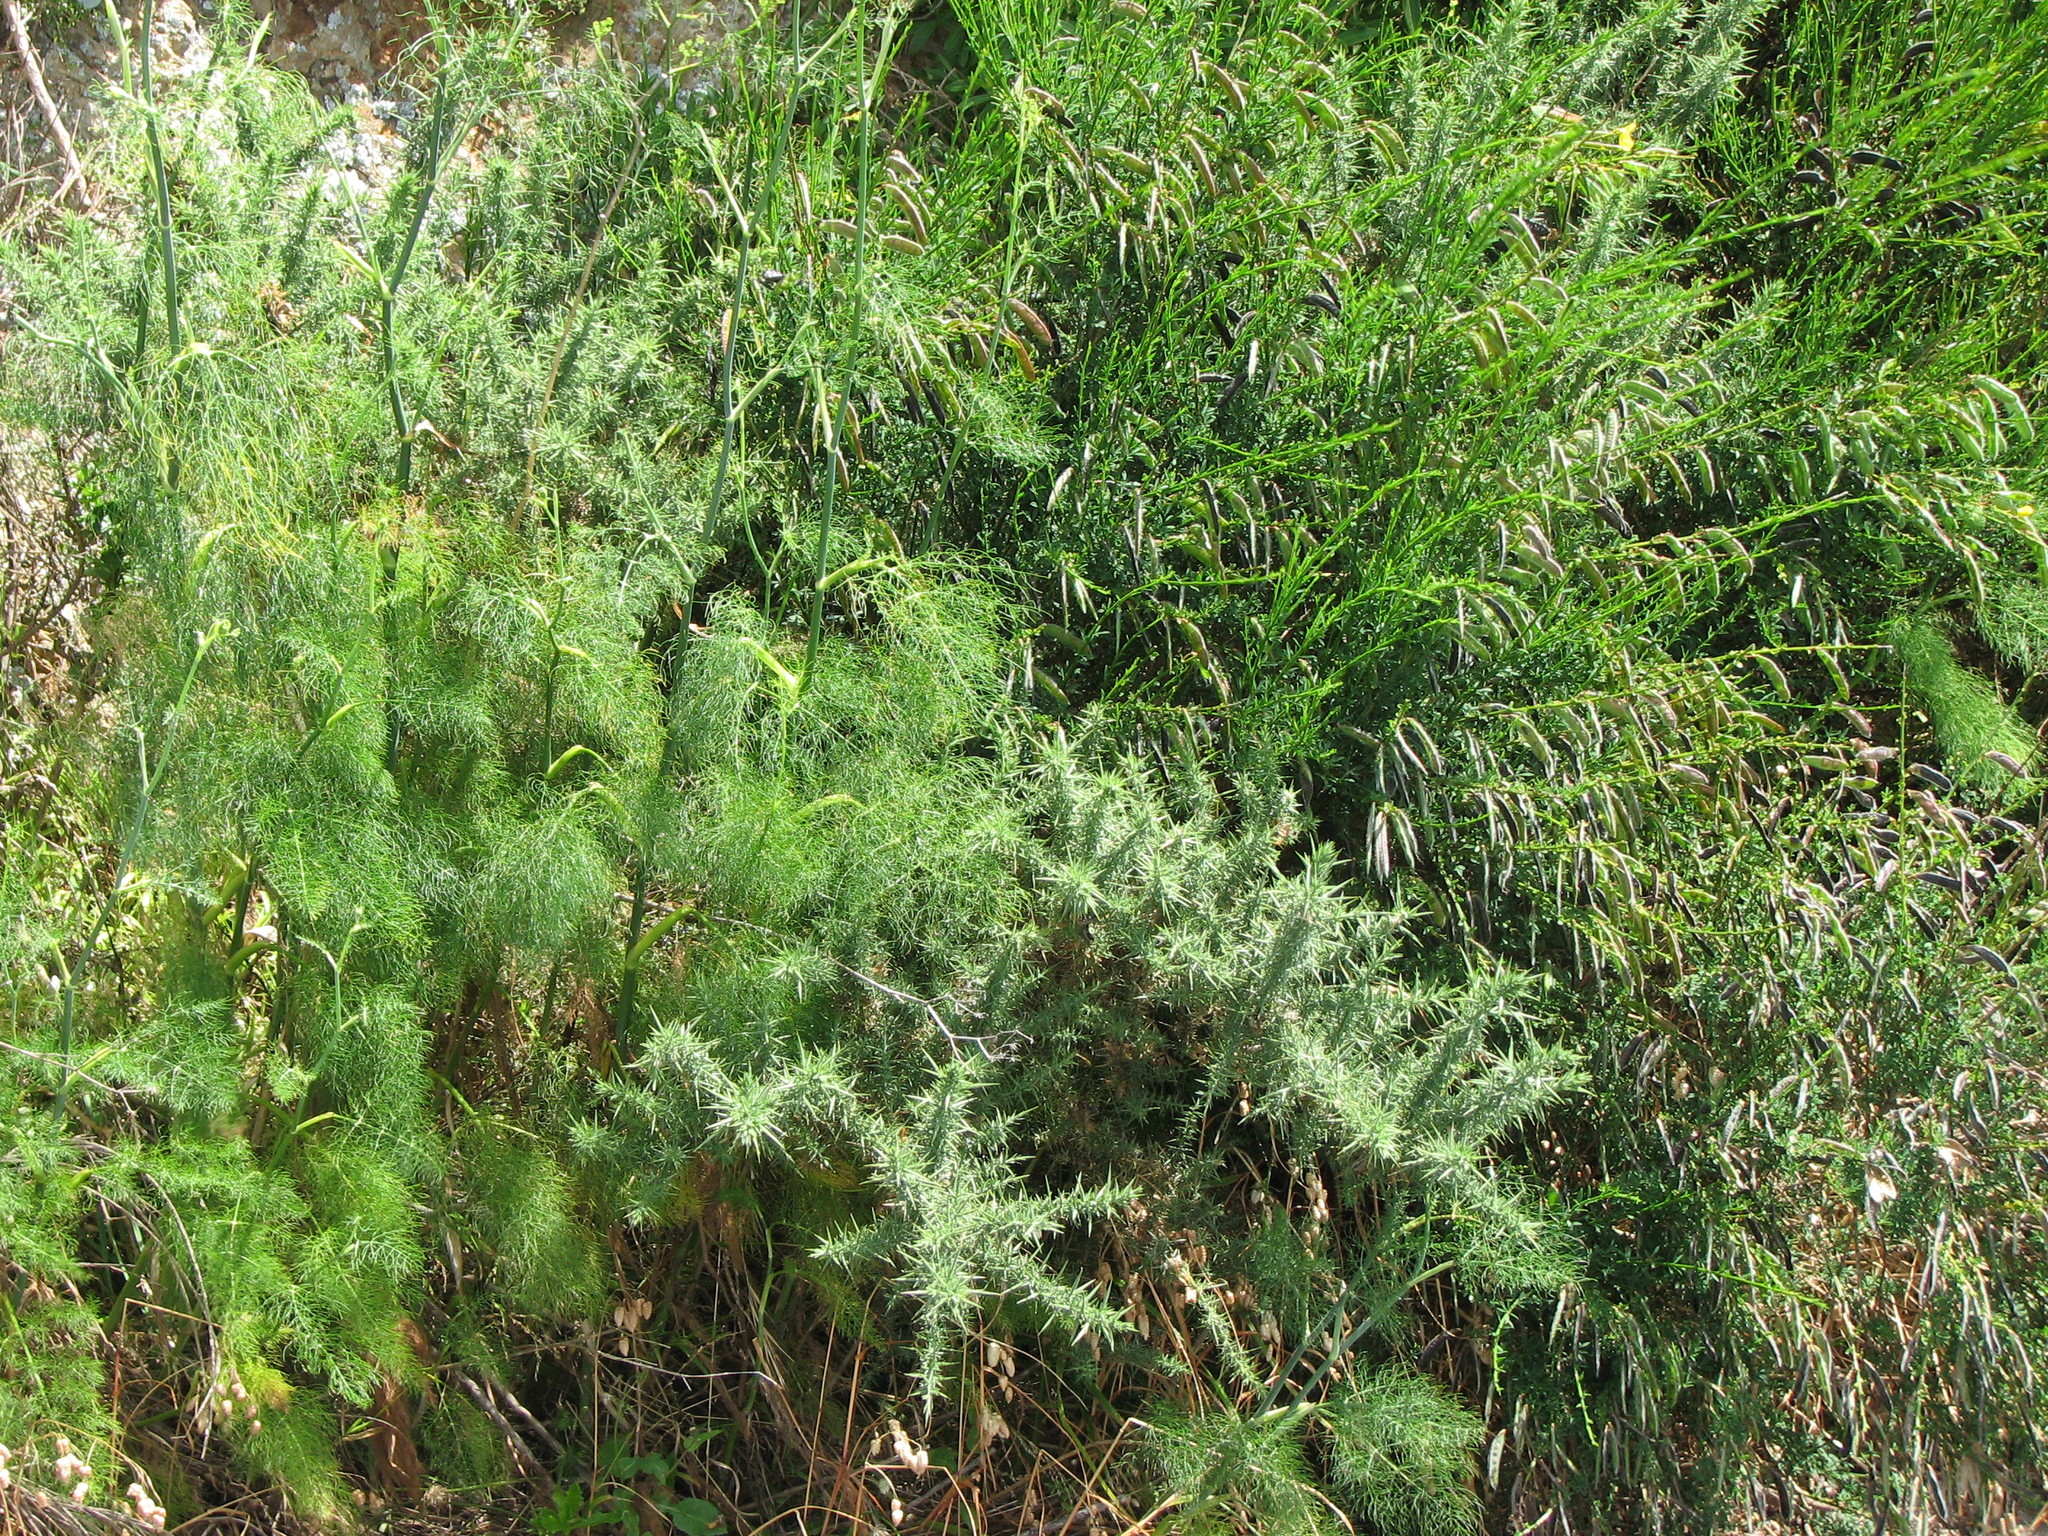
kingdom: Plantae
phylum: Tracheophyta
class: Magnoliopsida
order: Apiales
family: Apiaceae
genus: Foeniculum
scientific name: Foeniculum vulgare
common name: Fennel
